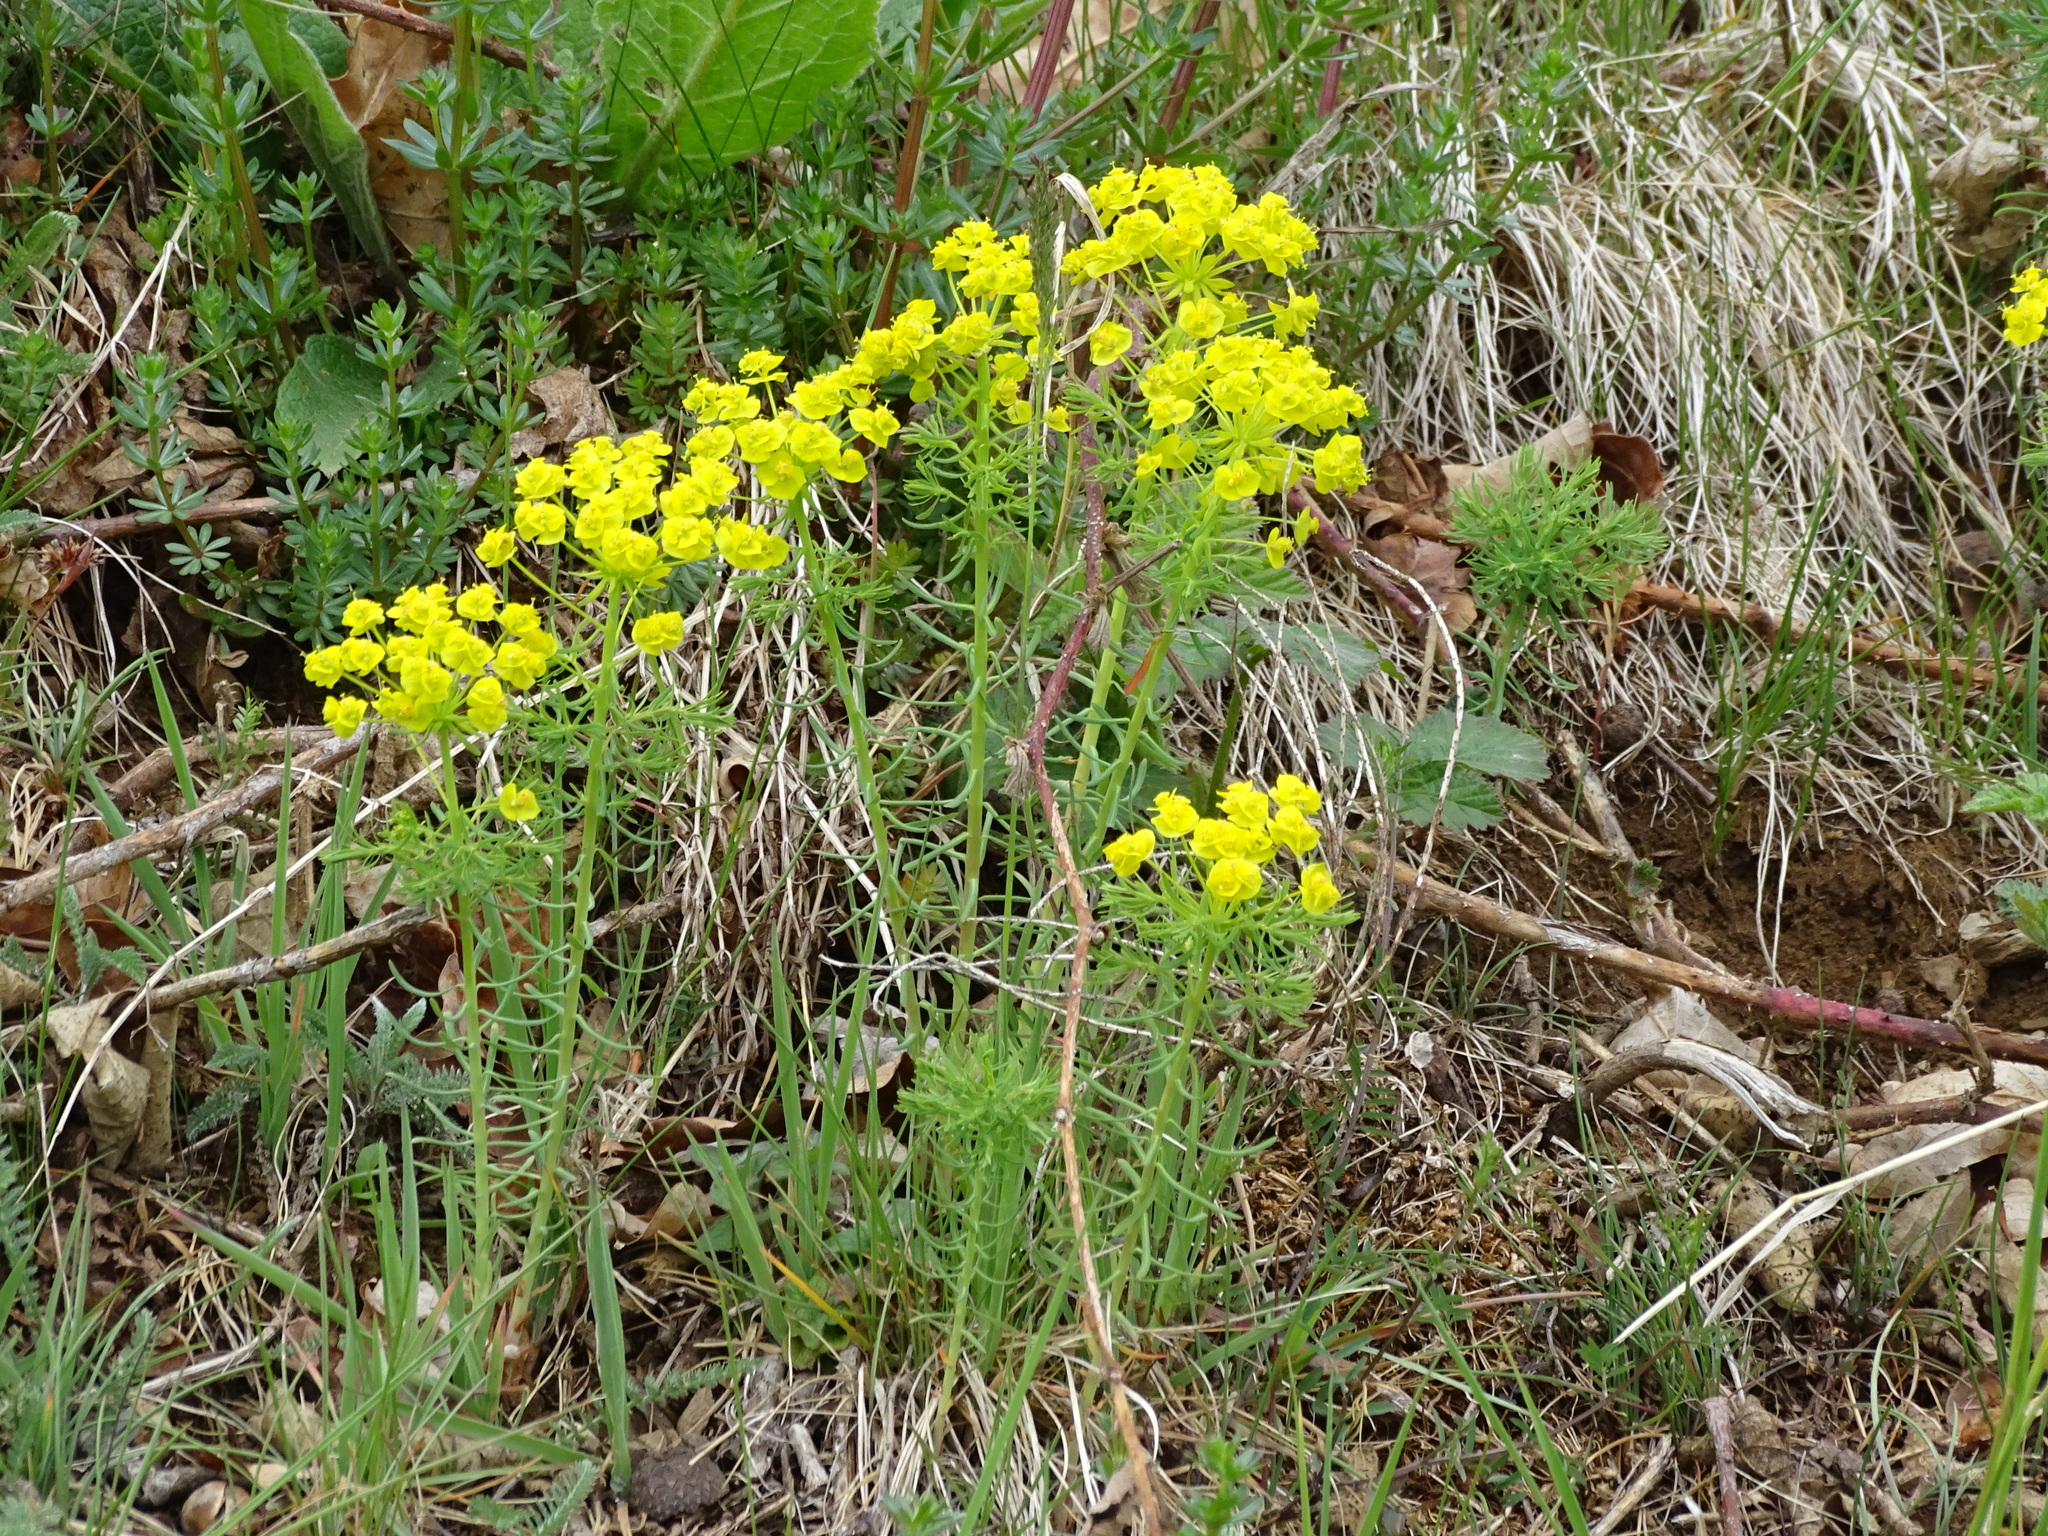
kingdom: Plantae
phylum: Tracheophyta
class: Magnoliopsida
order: Malpighiales
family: Euphorbiaceae
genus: Euphorbia
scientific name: Euphorbia cyparissias
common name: Cypress spurge
